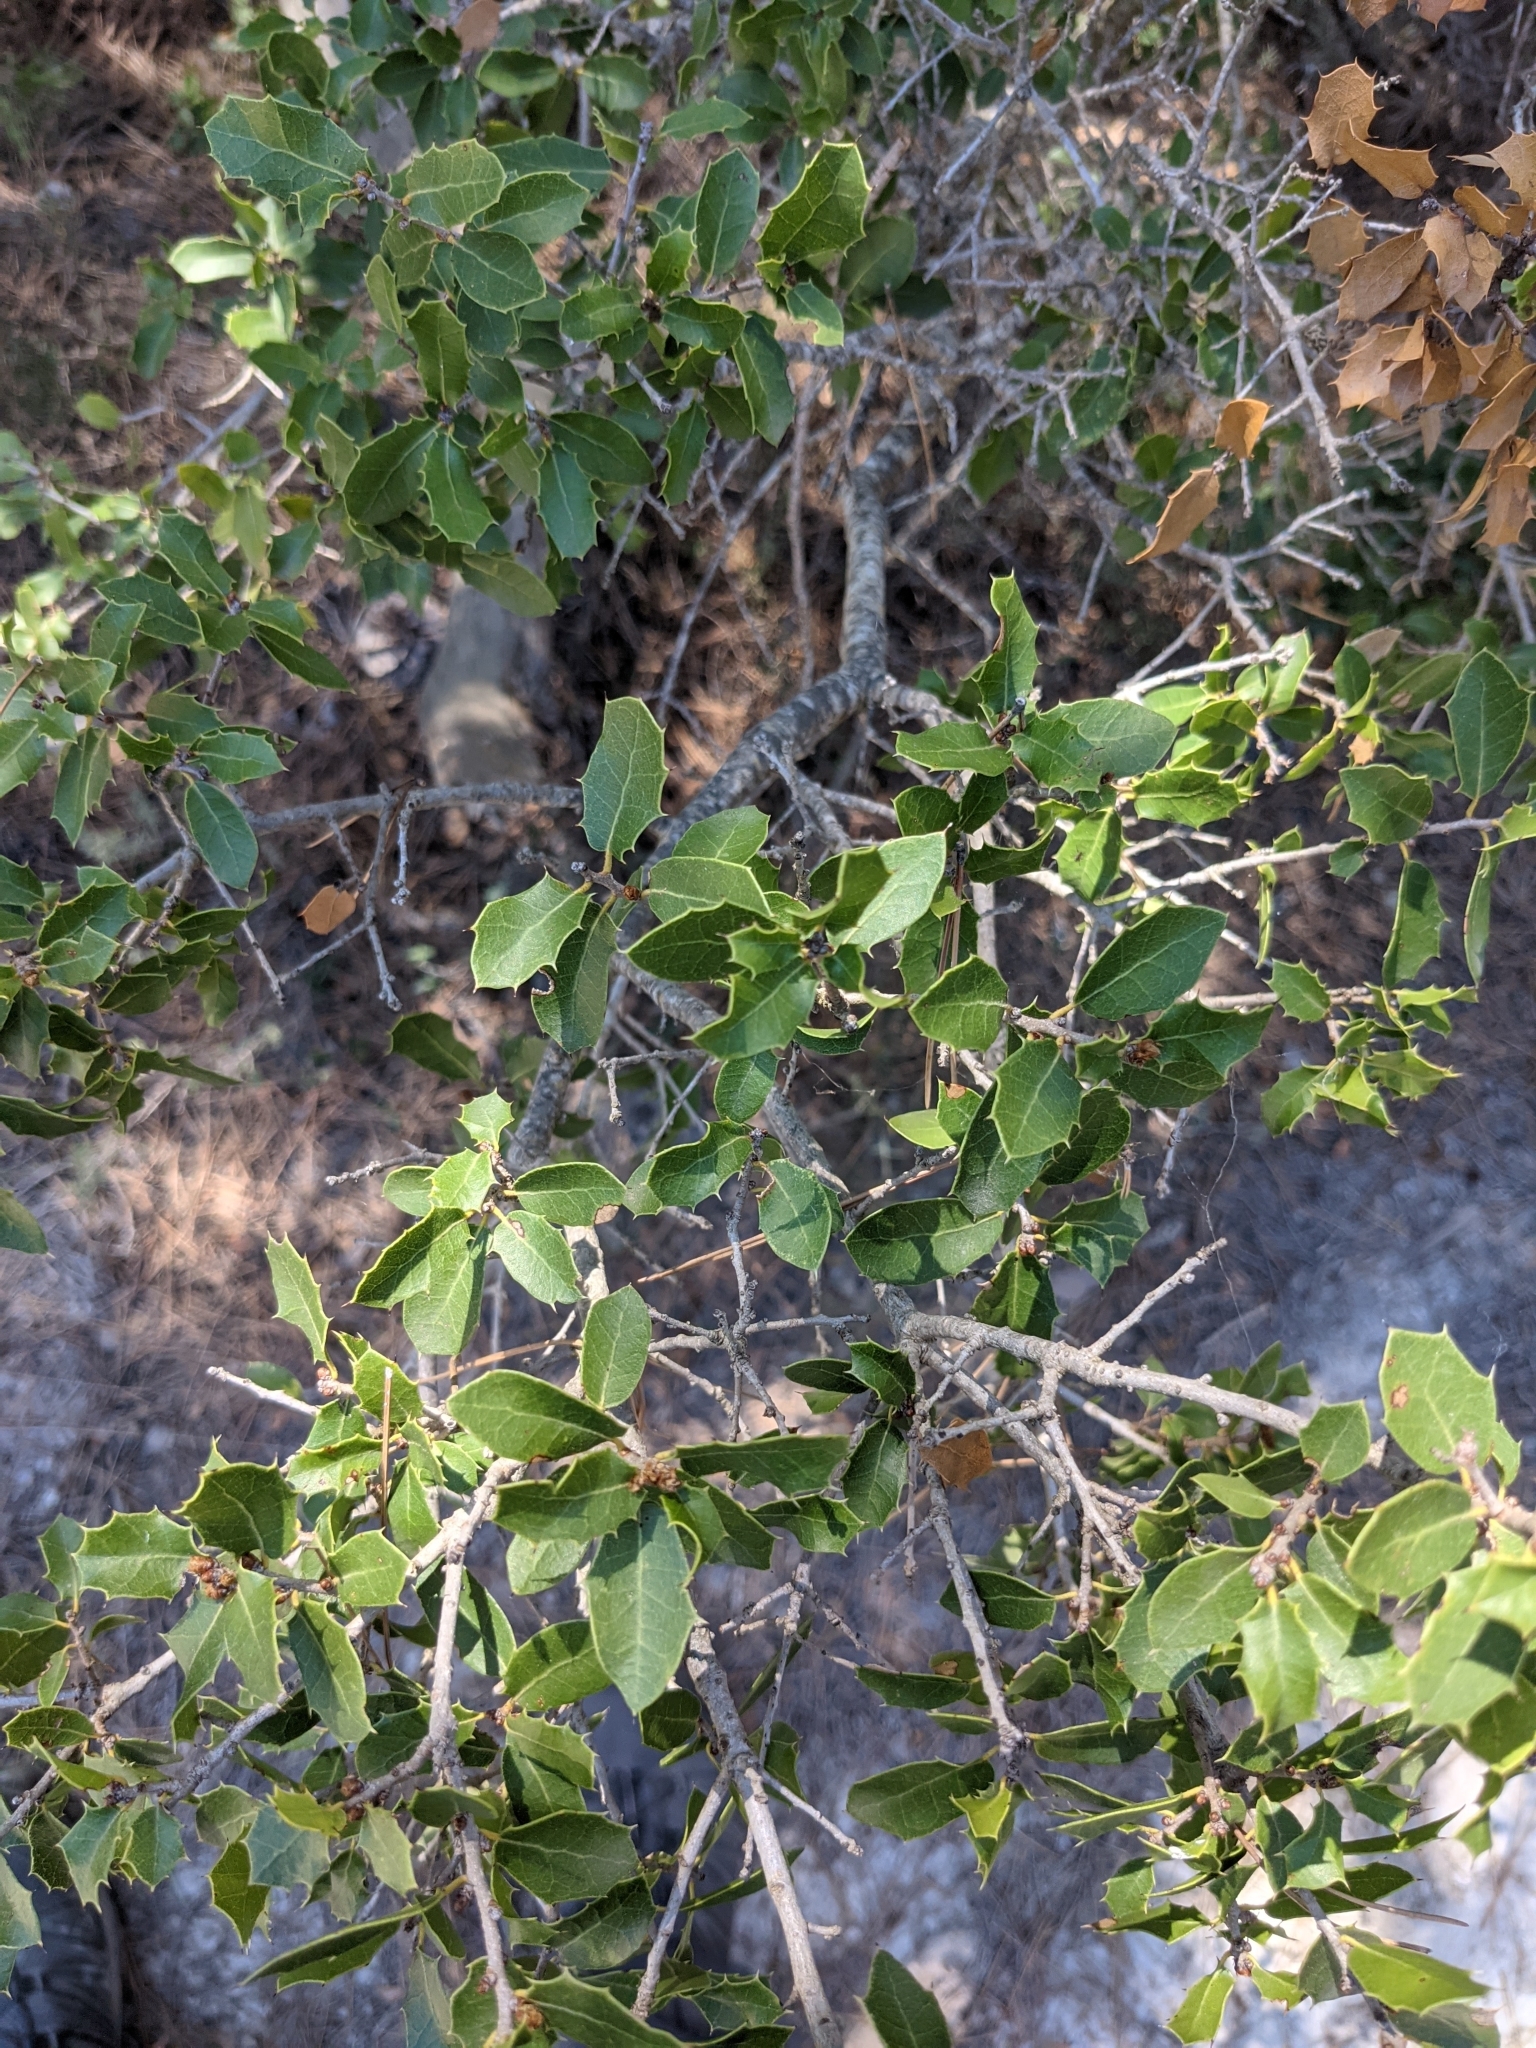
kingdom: Plantae
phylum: Tracheophyta
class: Magnoliopsida
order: Fagales
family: Fagaceae
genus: Quercus
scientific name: Quercus coccifera
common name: Kermes oak
